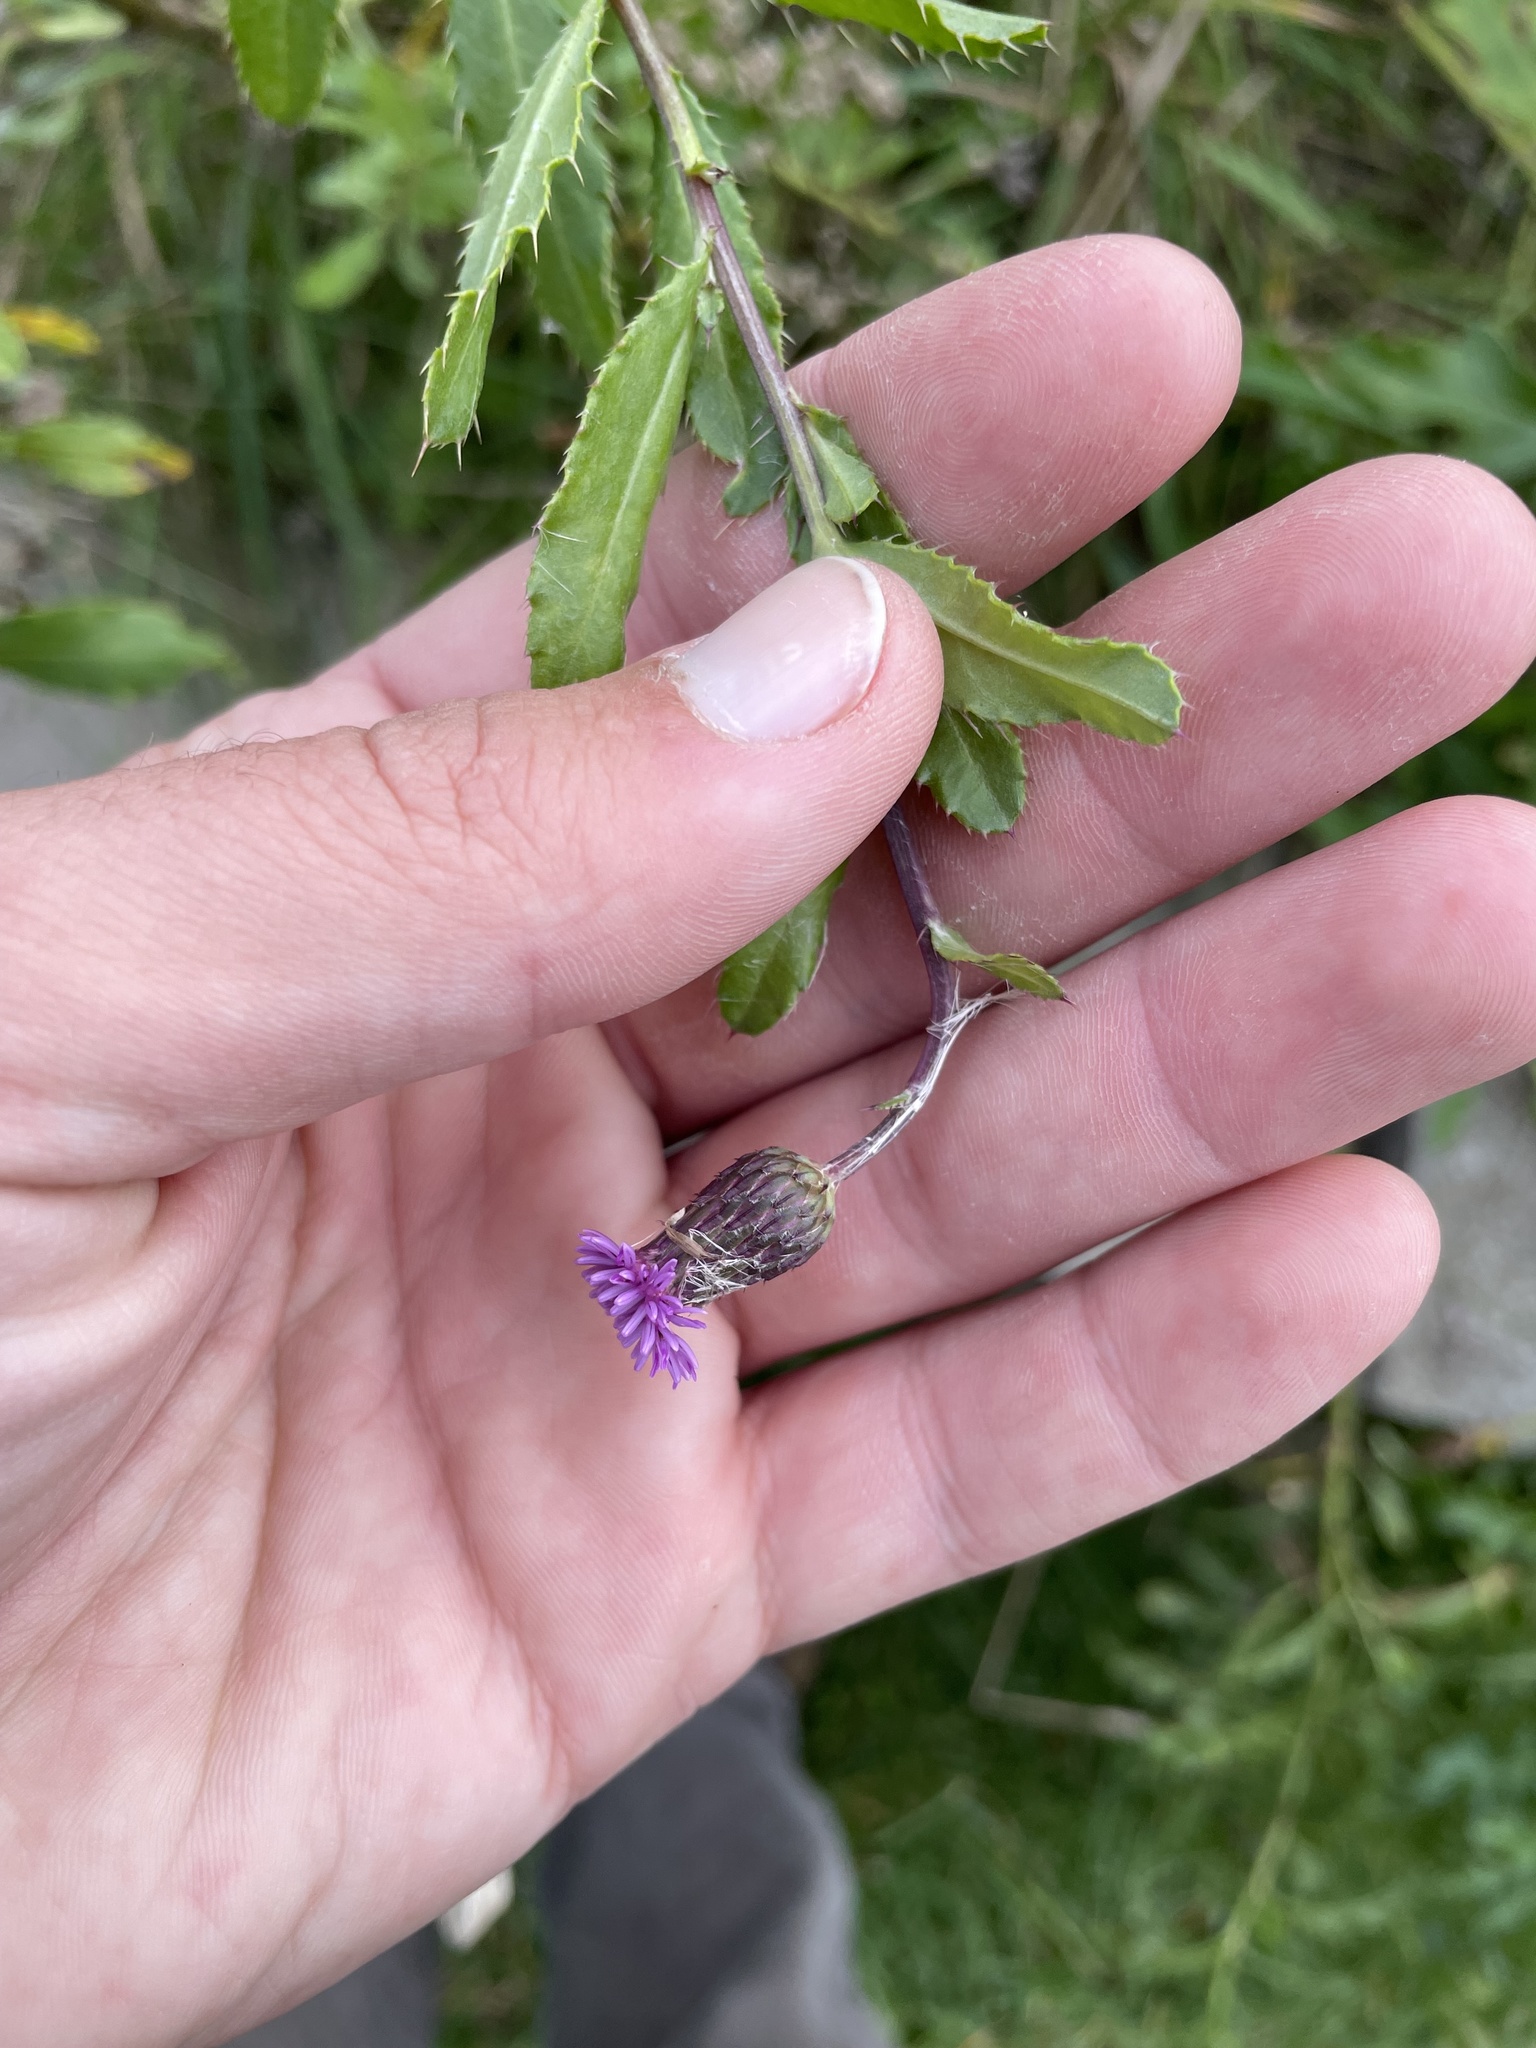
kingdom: Plantae
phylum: Tracheophyta
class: Magnoliopsida
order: Asterales
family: Asteraceae
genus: Cirsium
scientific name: Cirsium arvense
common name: Creeping thistle
